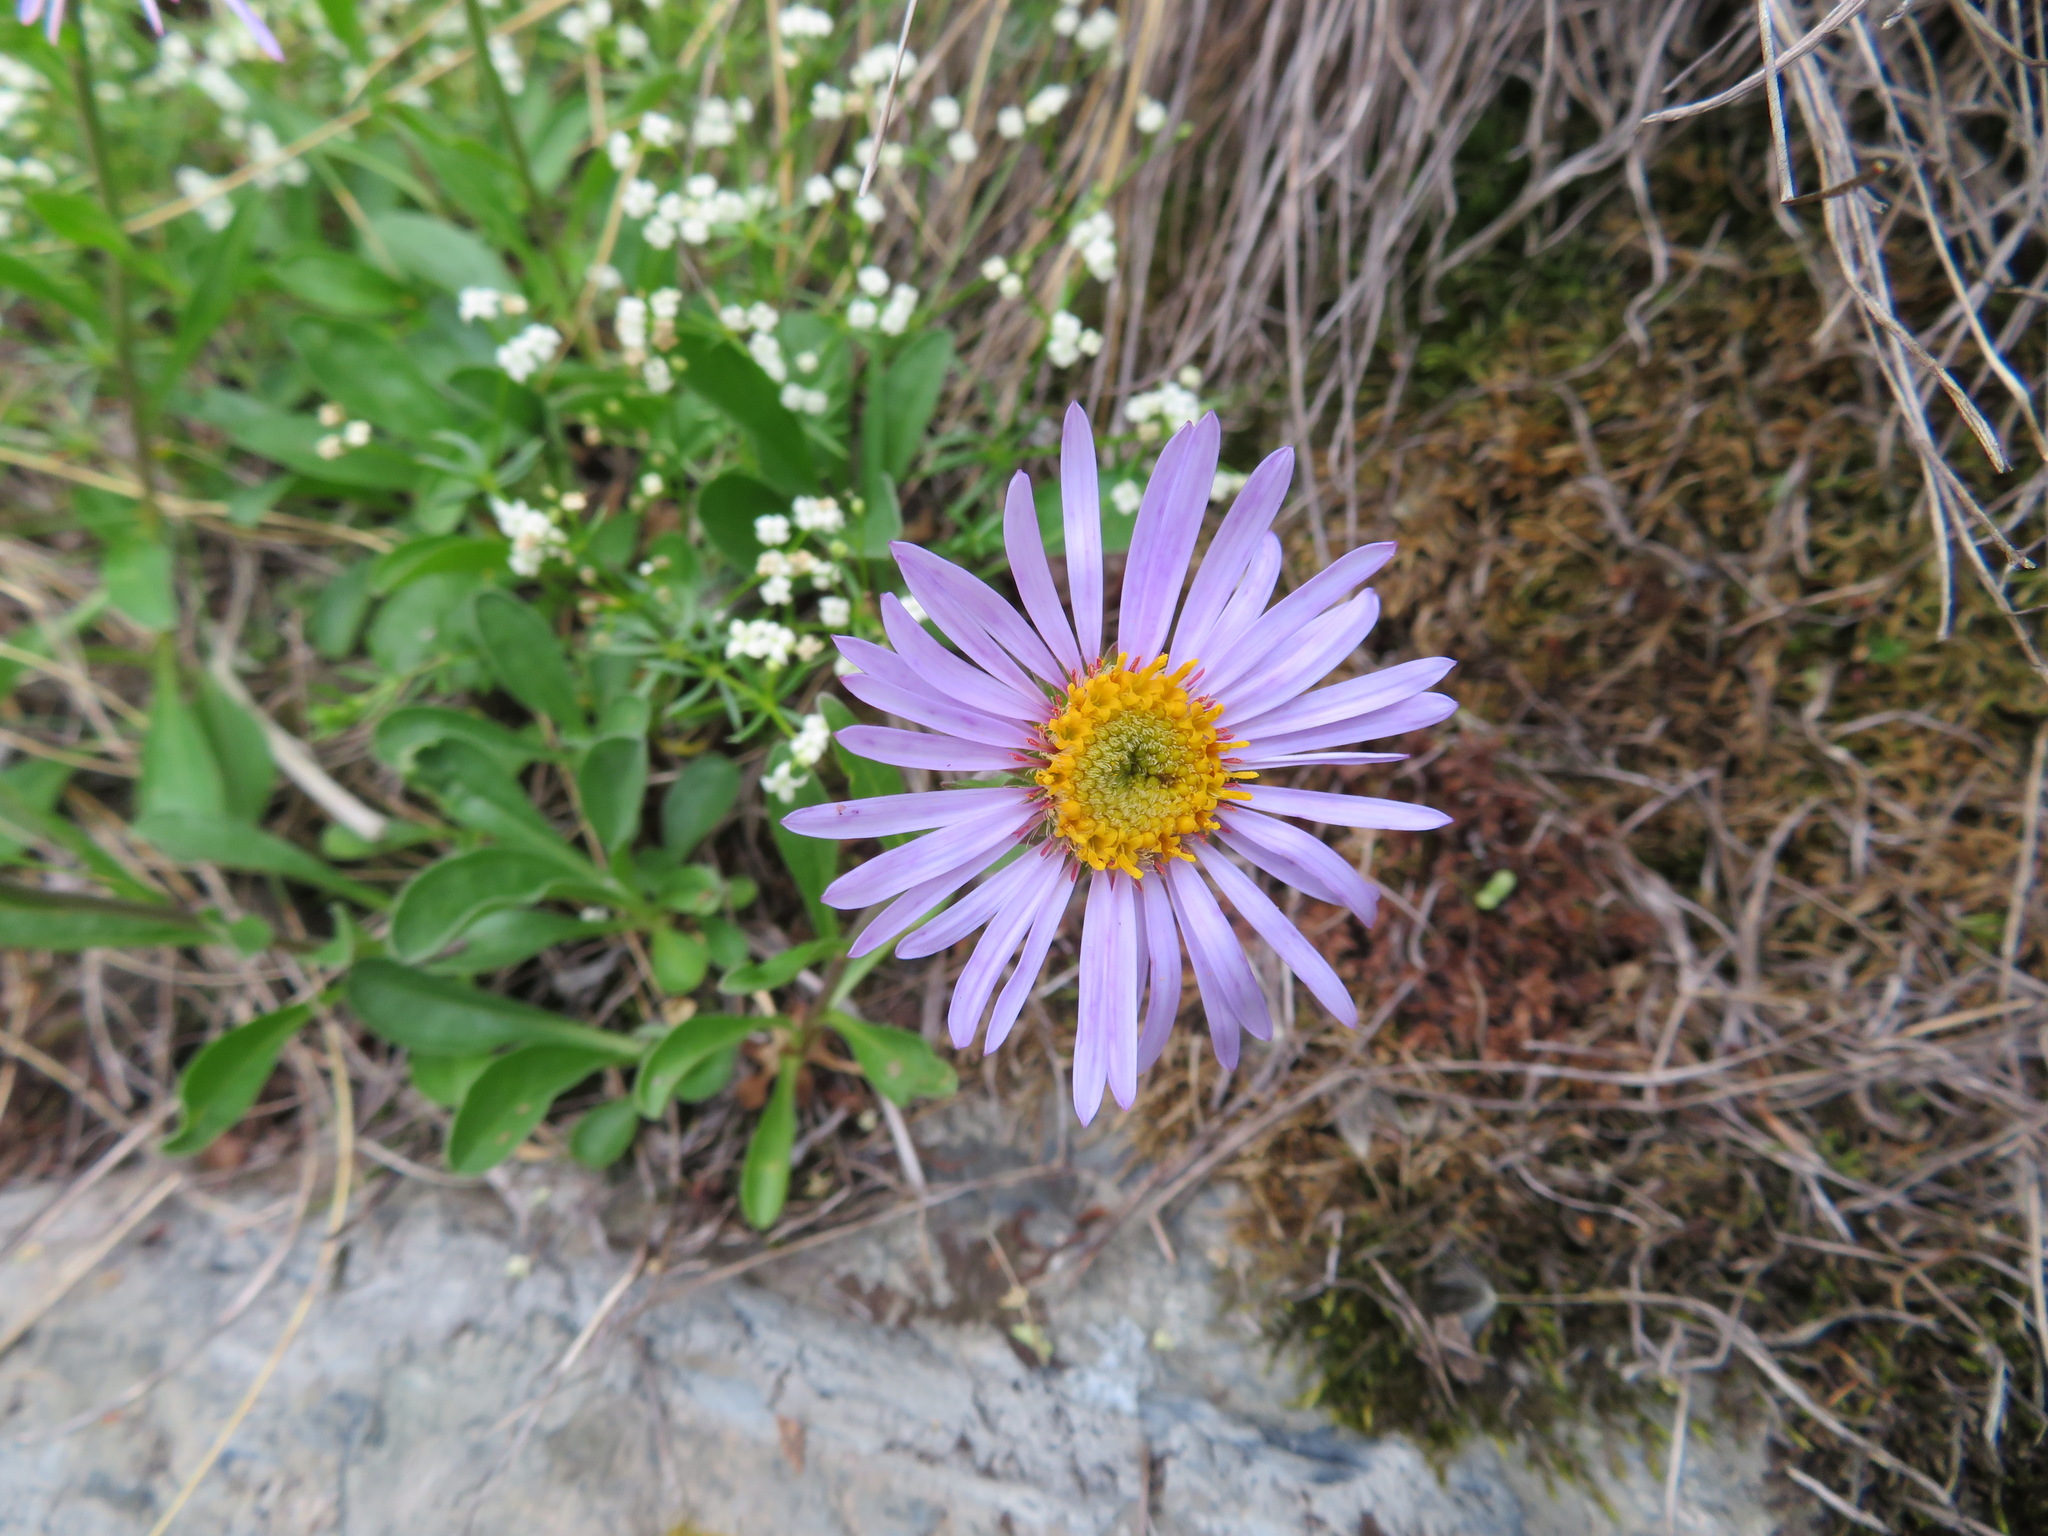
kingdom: Plantae
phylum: Tracheophyta
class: Magnoliopsida
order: Asterales
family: Asteraceae
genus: Aster
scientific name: Aster alpinus
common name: Alpine aster
